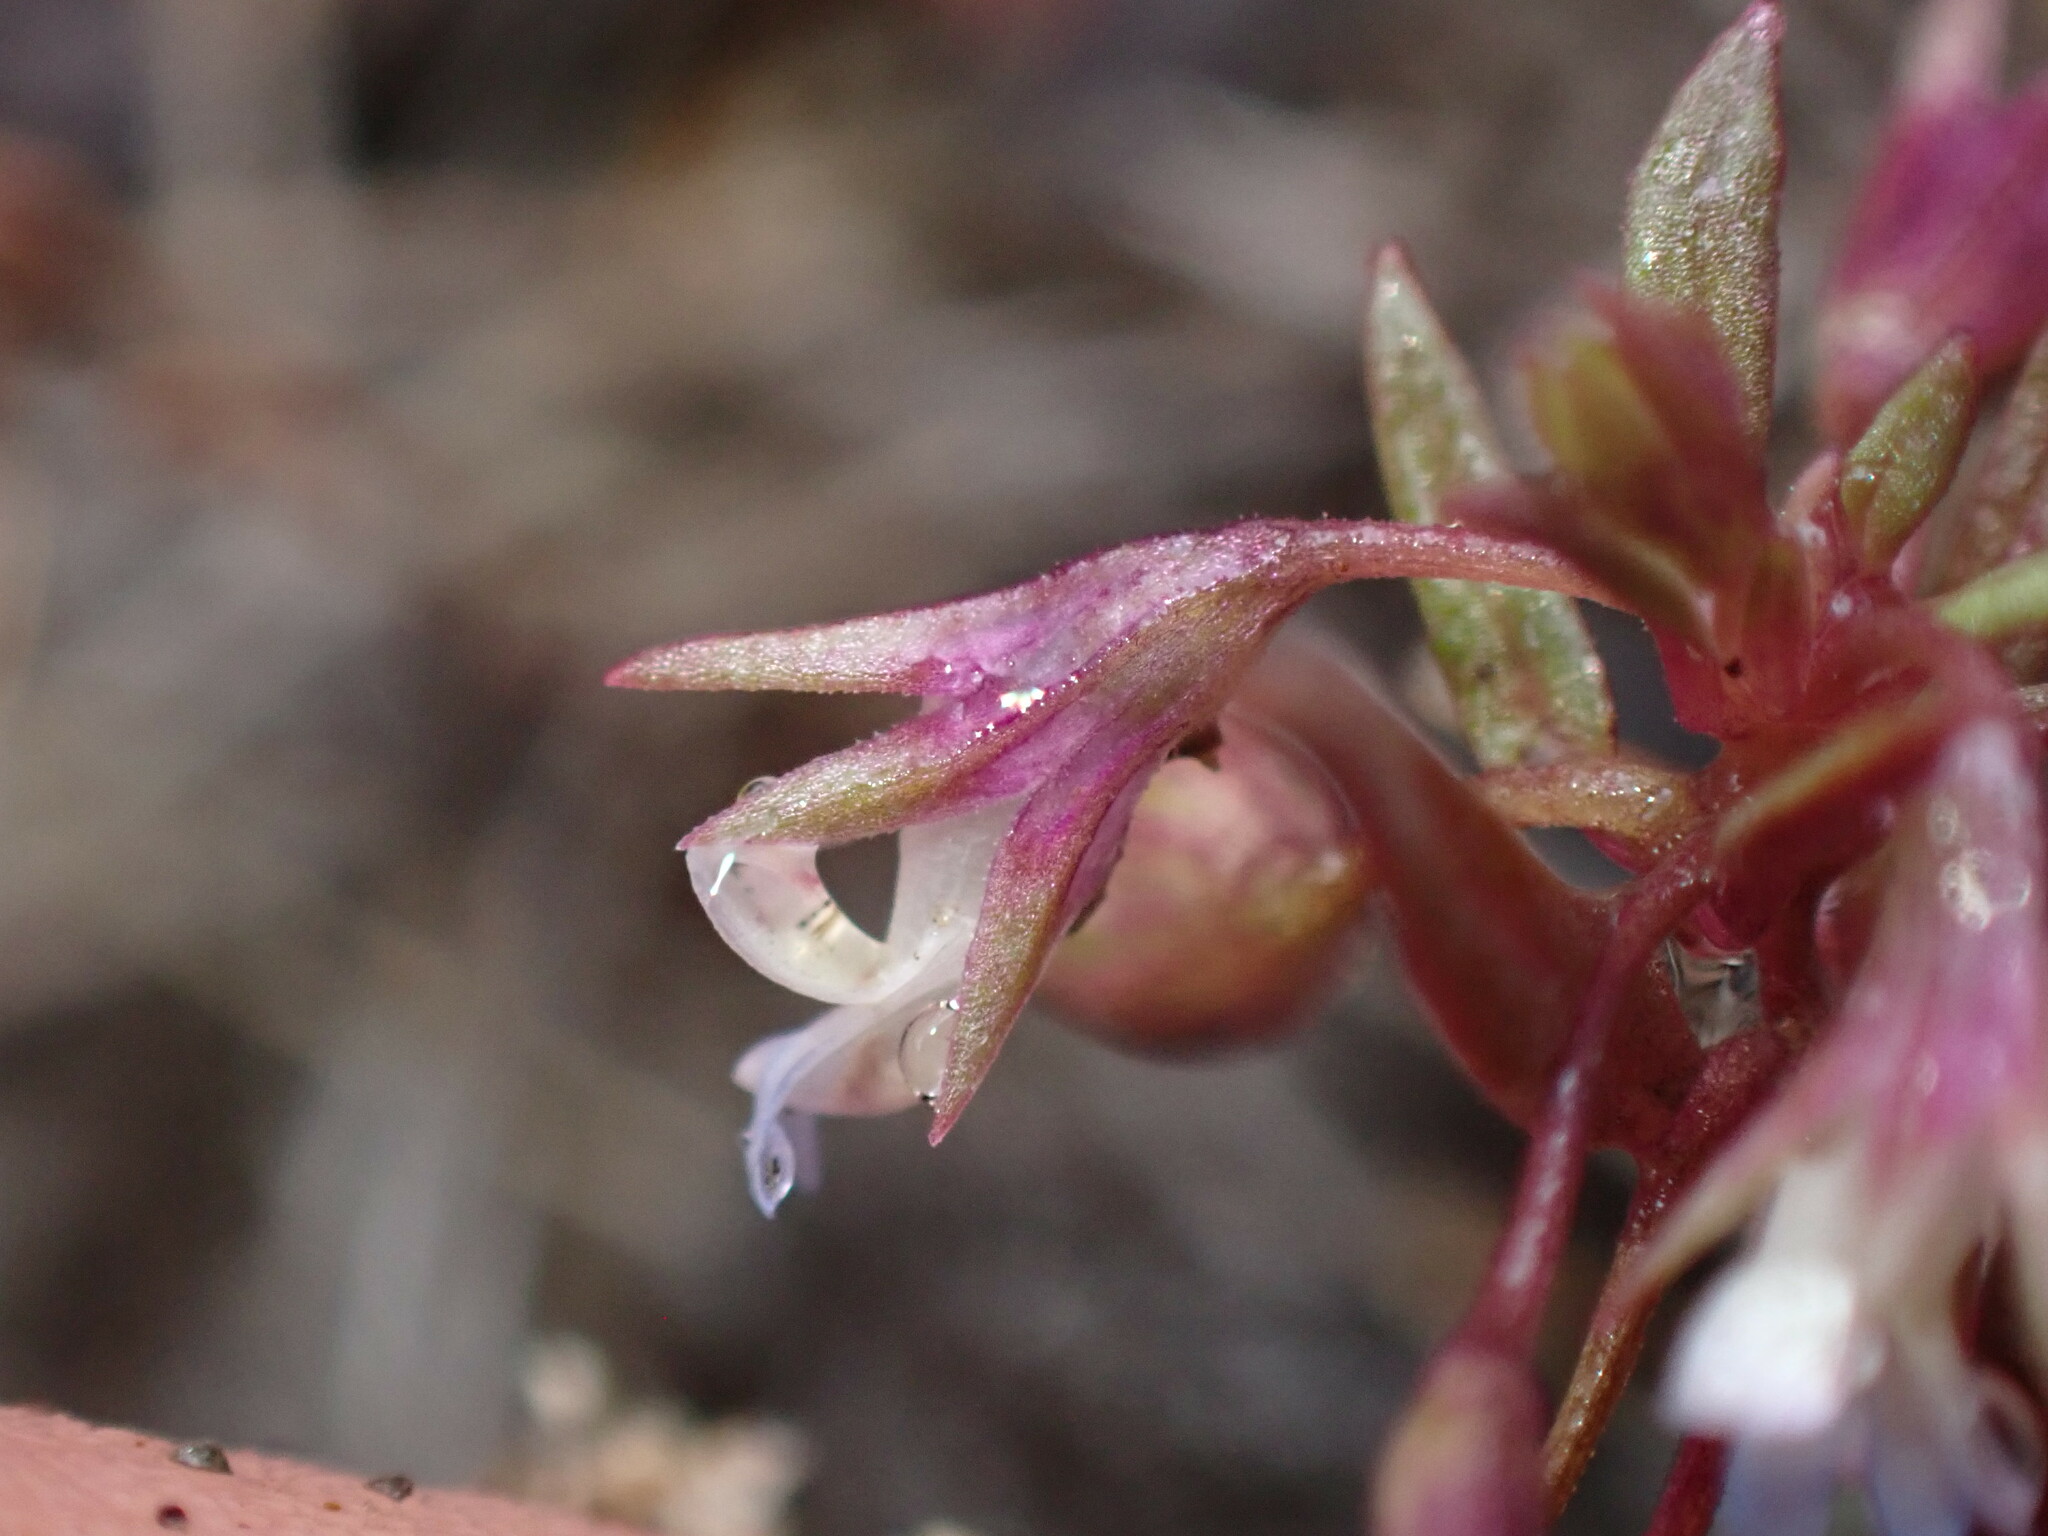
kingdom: Plantae
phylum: Tracheophyta
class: Magnoliopsida
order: Lamiales
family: Plantaginaceae
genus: Collinsia
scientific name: Collinsia parviflora
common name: Blue-lips
